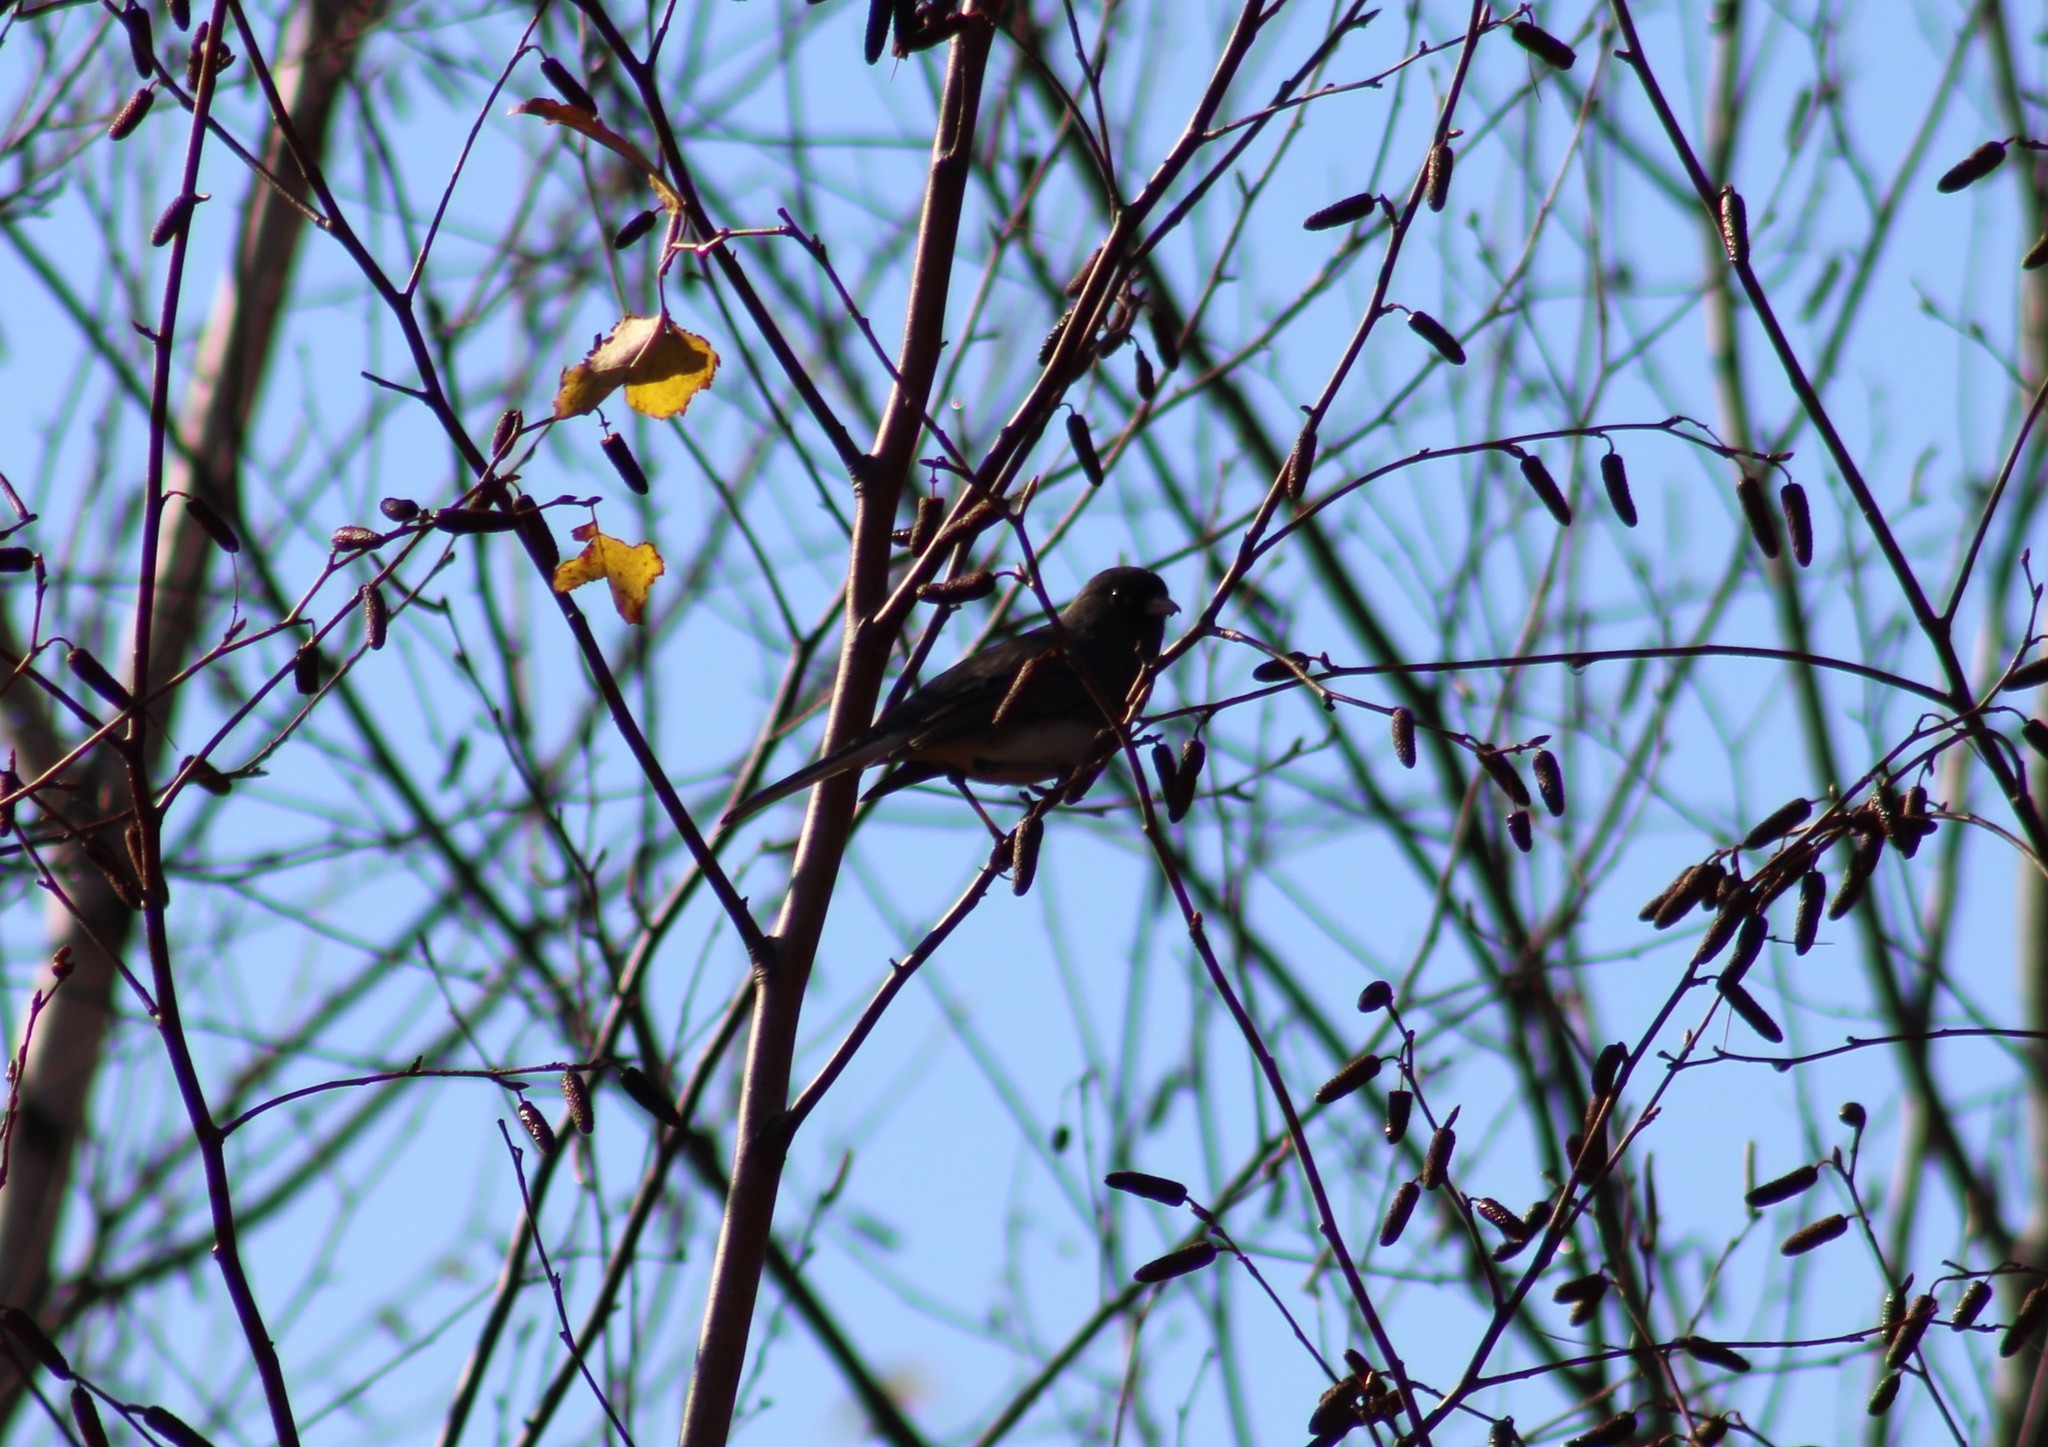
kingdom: Animalia
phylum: Chordata
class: Aves
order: Passeriformes
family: Passerellidae
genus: Junco
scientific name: Junco hyemalis
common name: Dark-eyed junco
